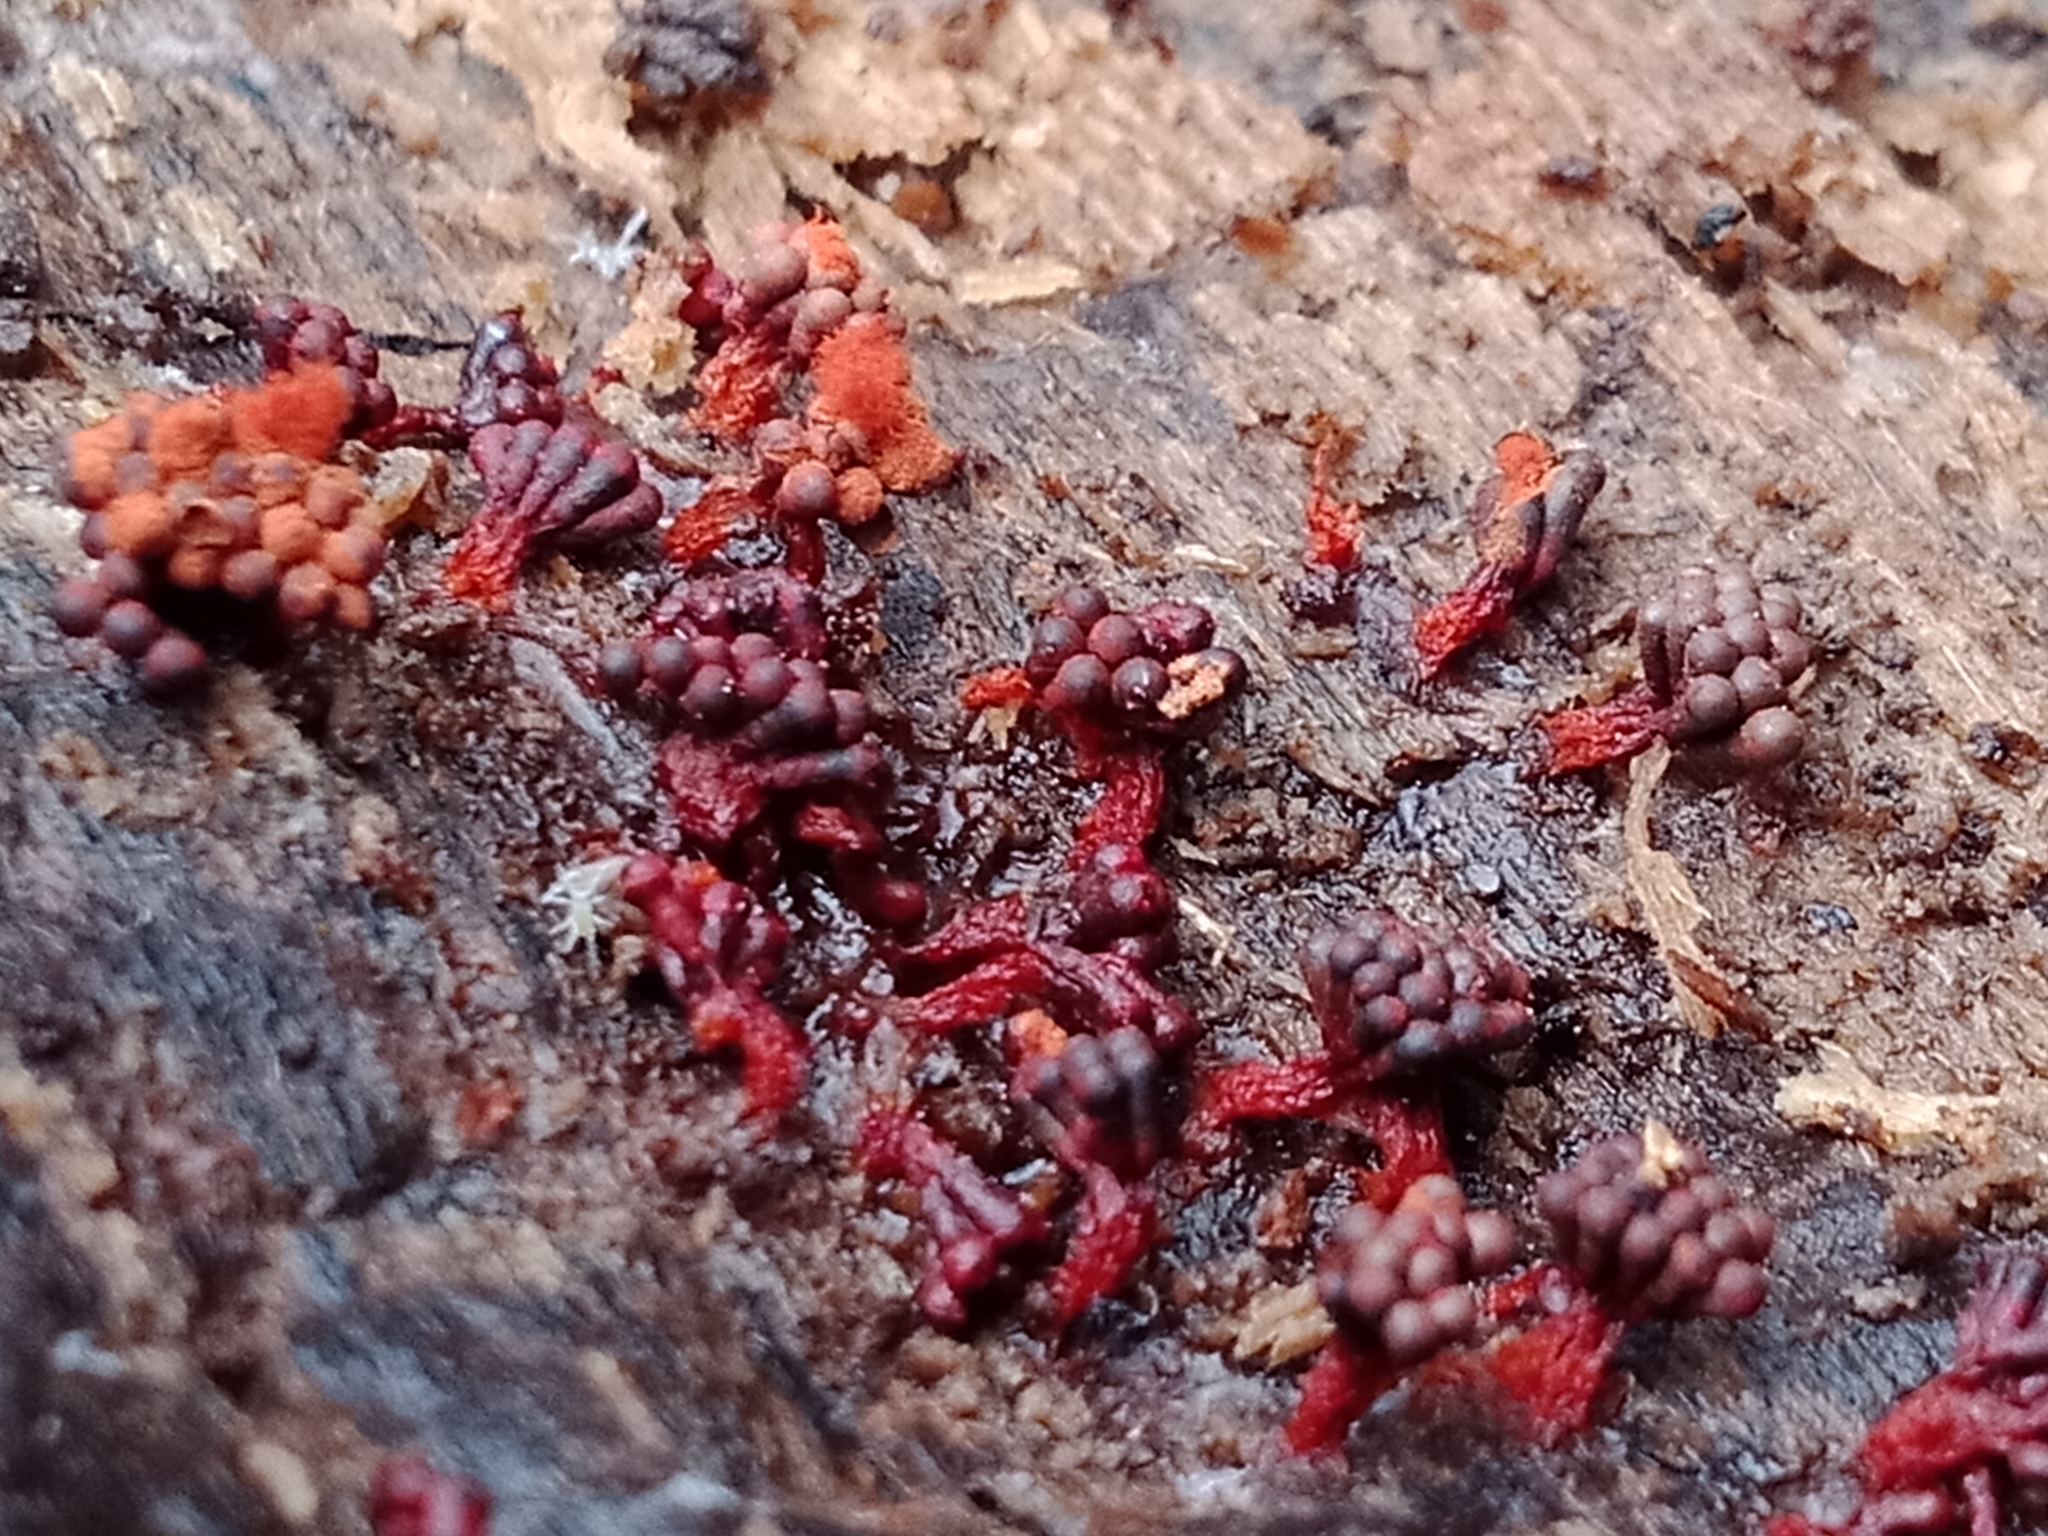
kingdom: Protozoa
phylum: Mycetozoa
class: Myxomycetes
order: Trichiales
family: Trichiaceae
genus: Metatrichia
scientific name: Metatrichia vesparia
